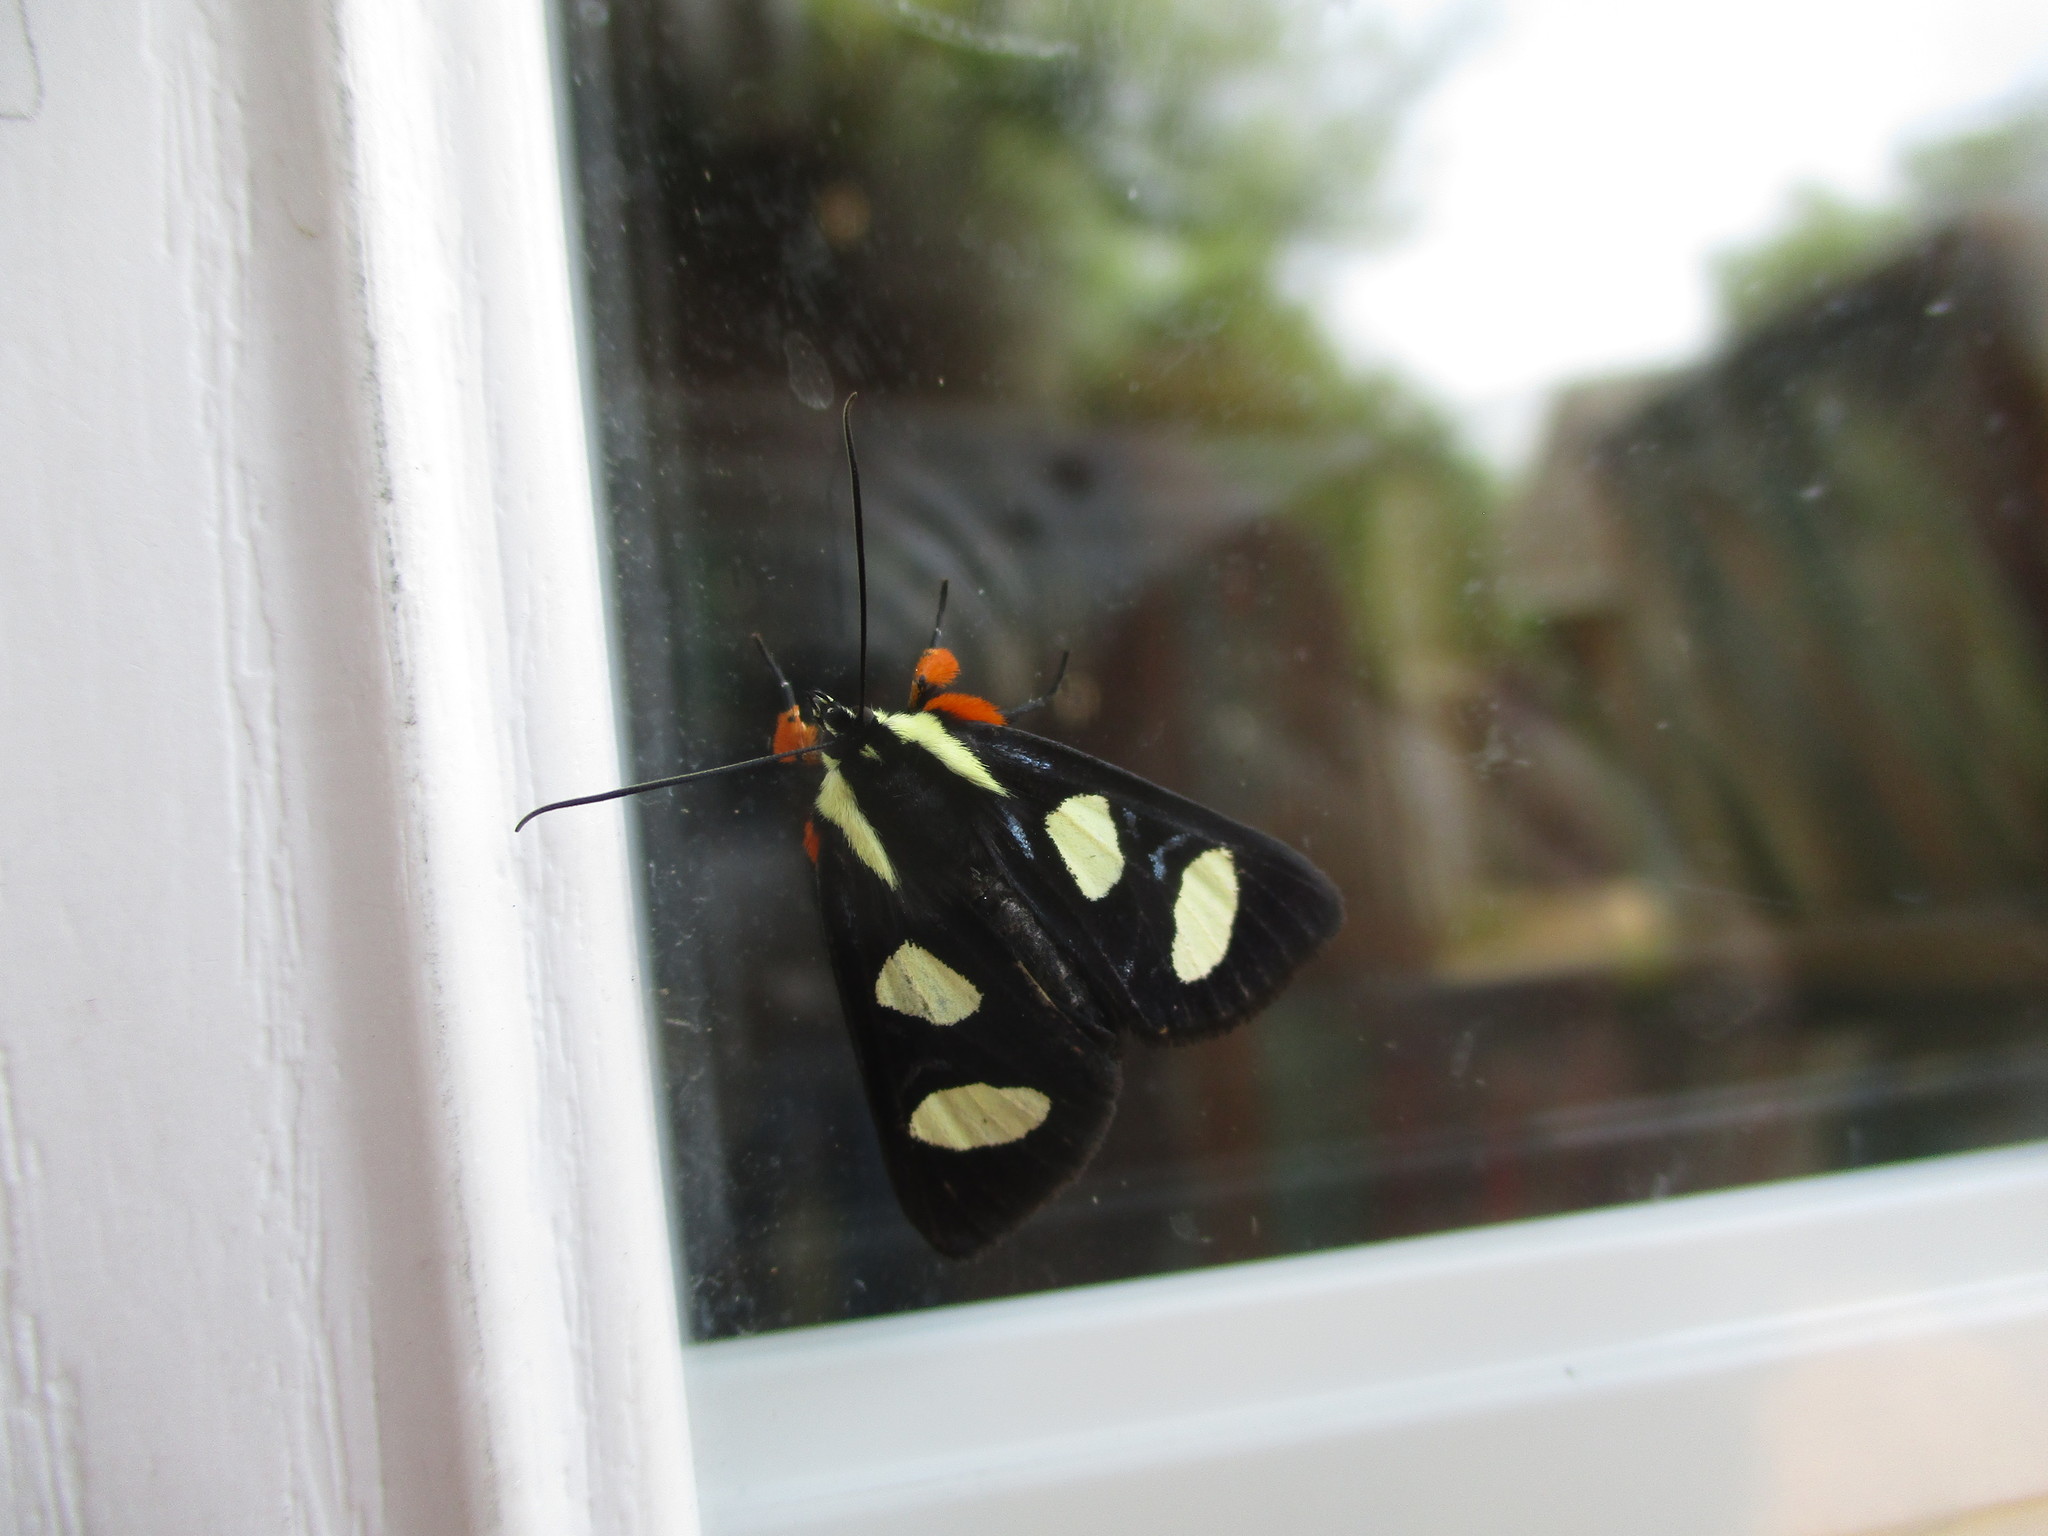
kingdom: Animalia
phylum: Arthropoda
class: Insecta
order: Lepidoptera
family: Noctuidae
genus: Alypia
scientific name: Alypia octomaculata
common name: Eight-spotted forester
